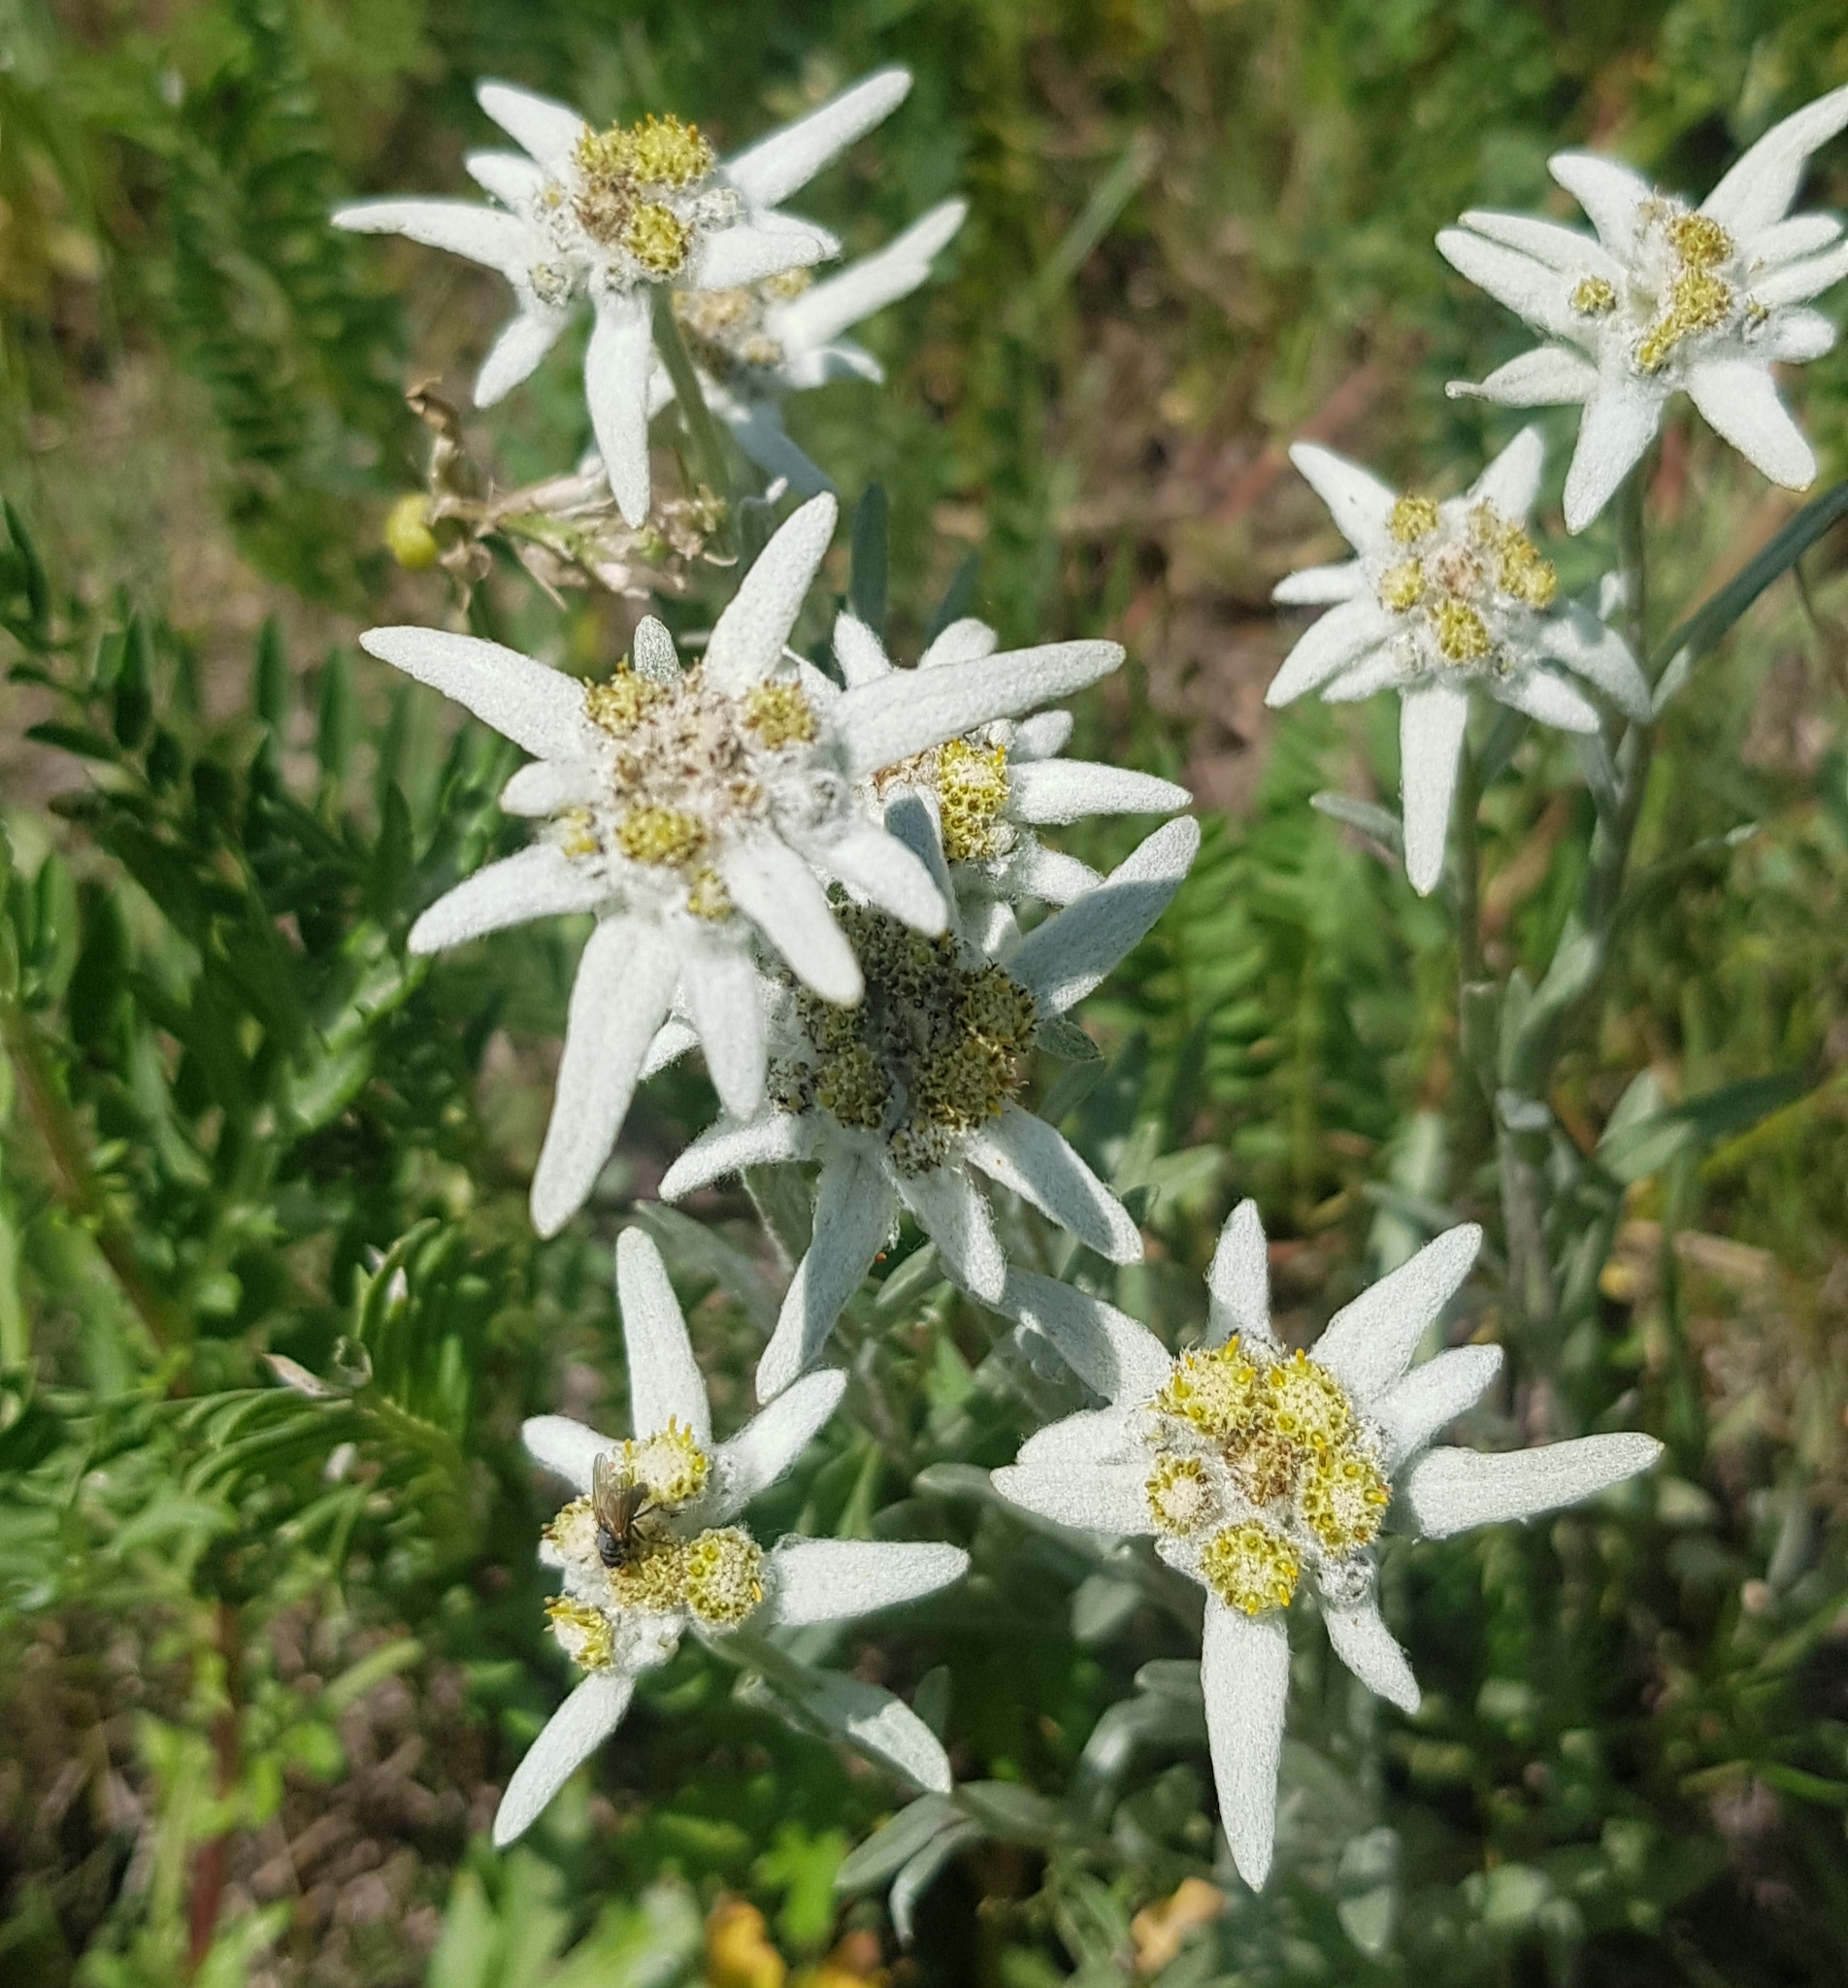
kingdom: Plantae
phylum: Tracheophyta
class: Magnoliopsida
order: Asterales
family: Asteraceae
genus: Leontopodium
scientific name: Leontopodium leontopodioides
